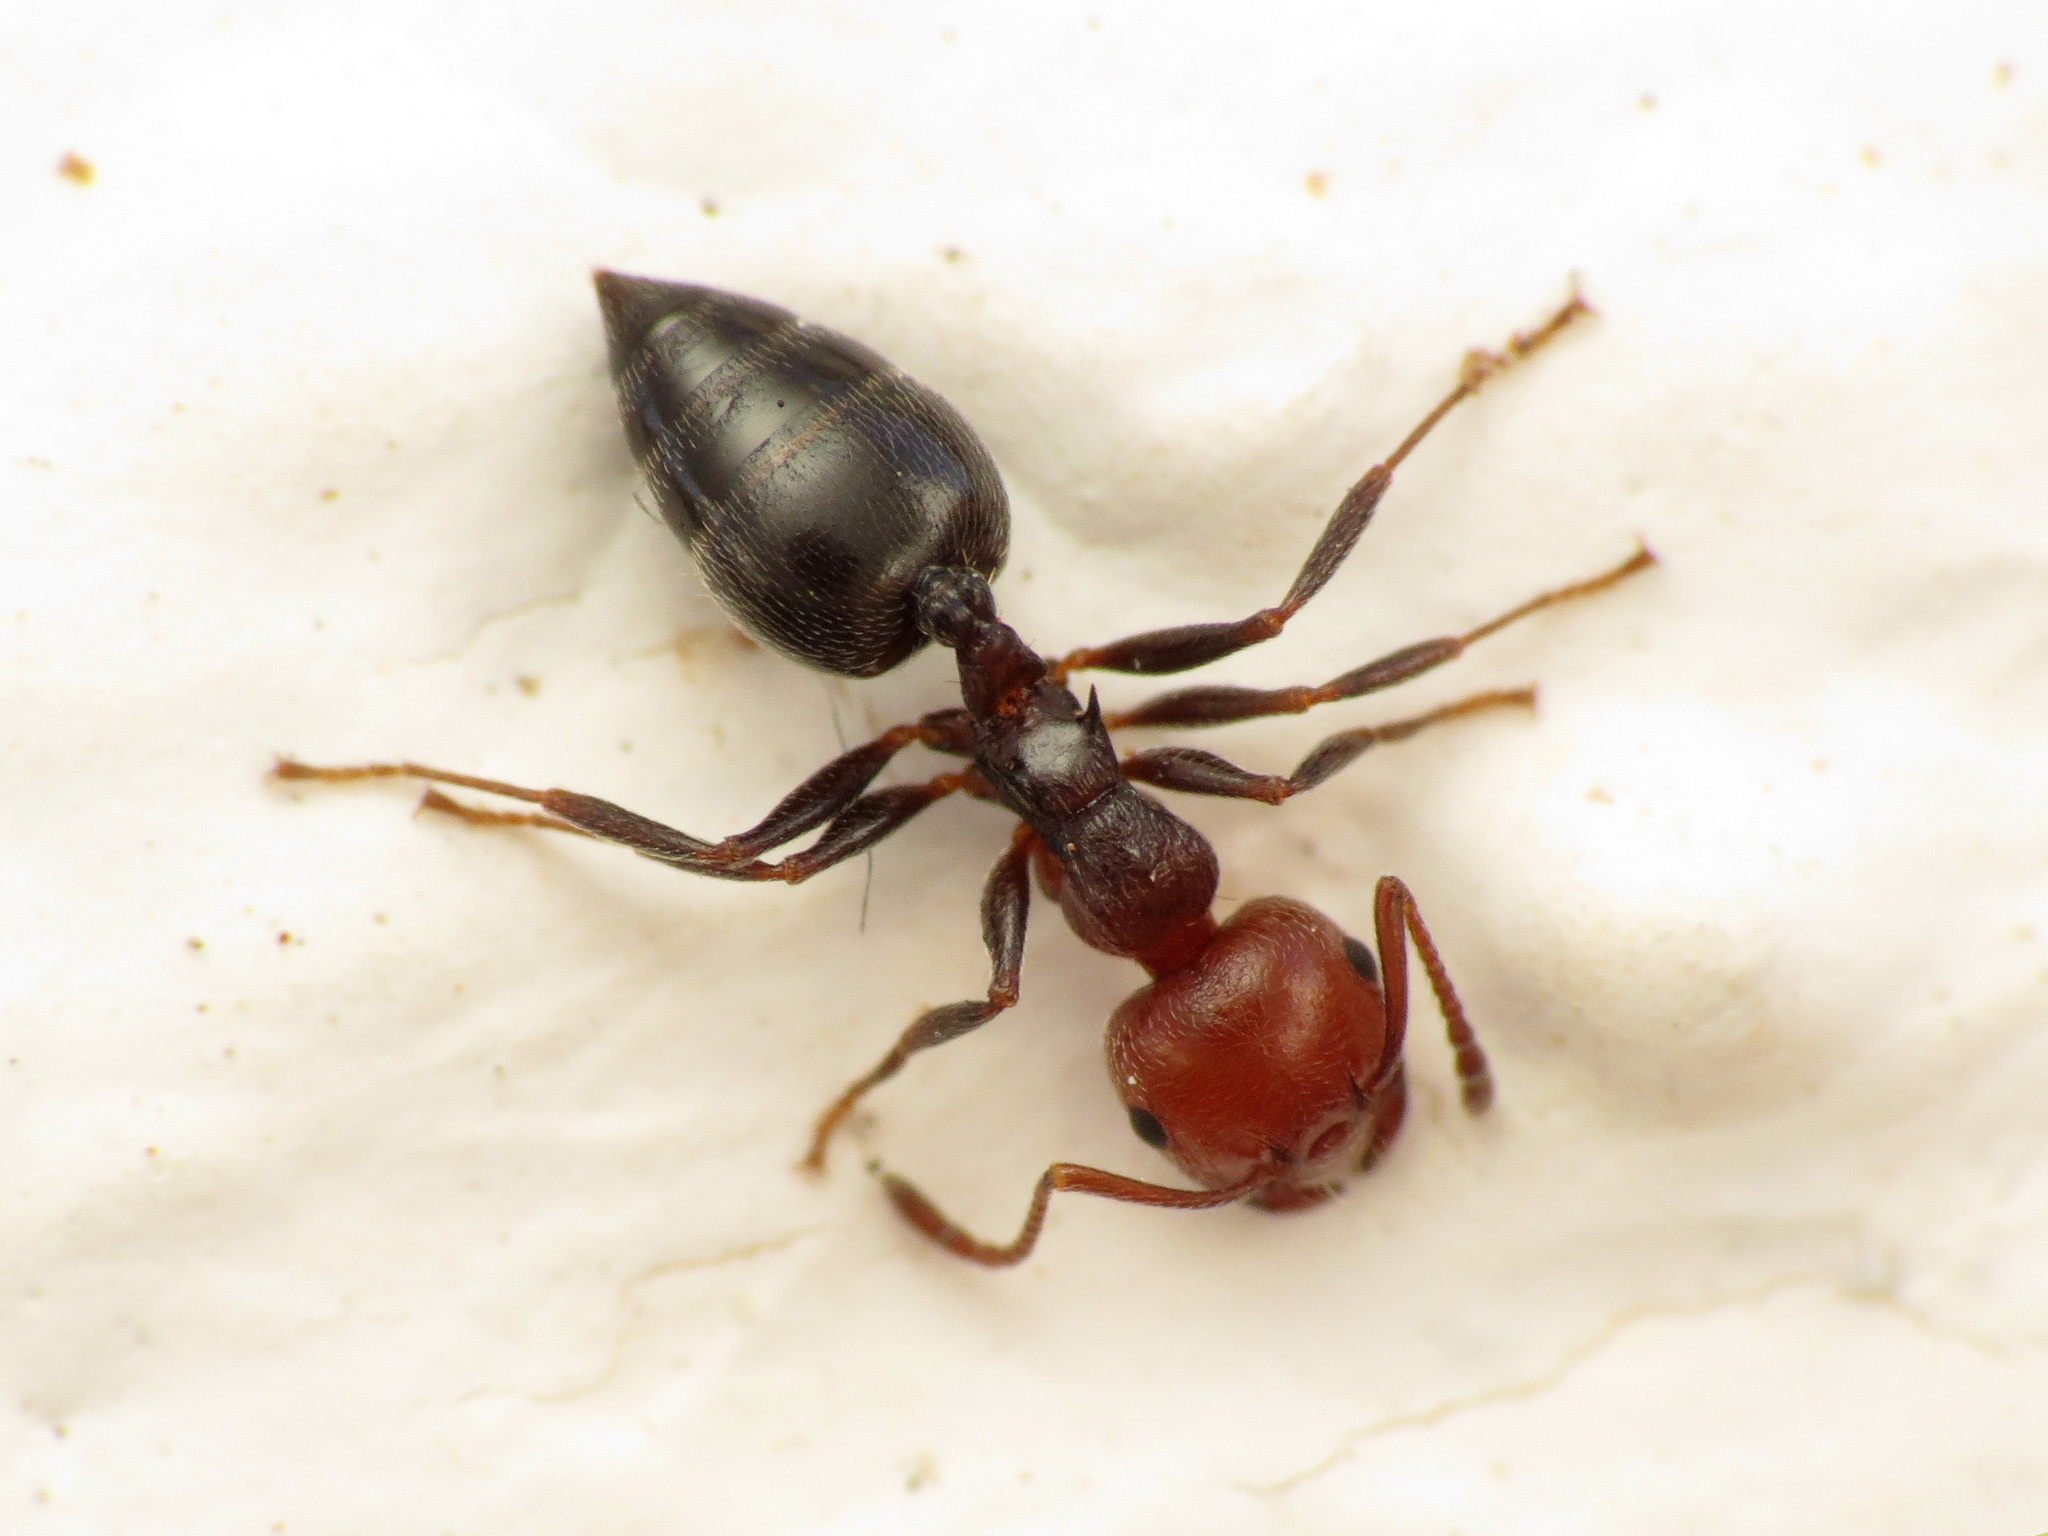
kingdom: Animalia
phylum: Arthropoda
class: Insecta
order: Hymenoptera
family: Formicidae
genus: Crematogaster
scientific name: Crematogaster scutellaris
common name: Fourmi du liège
